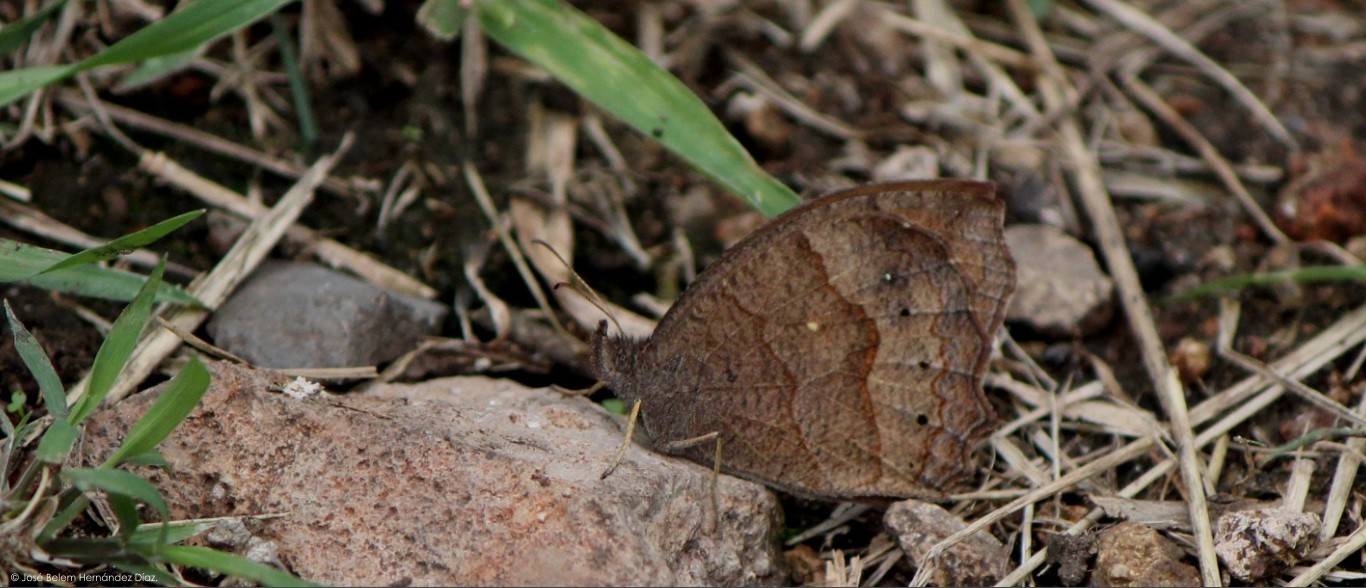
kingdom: Animalia
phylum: Arthropoda
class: Insecta
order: Lepidoptera
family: Nymphalidae
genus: Pindis
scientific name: Pindis squamistriga
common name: Variable satyr
